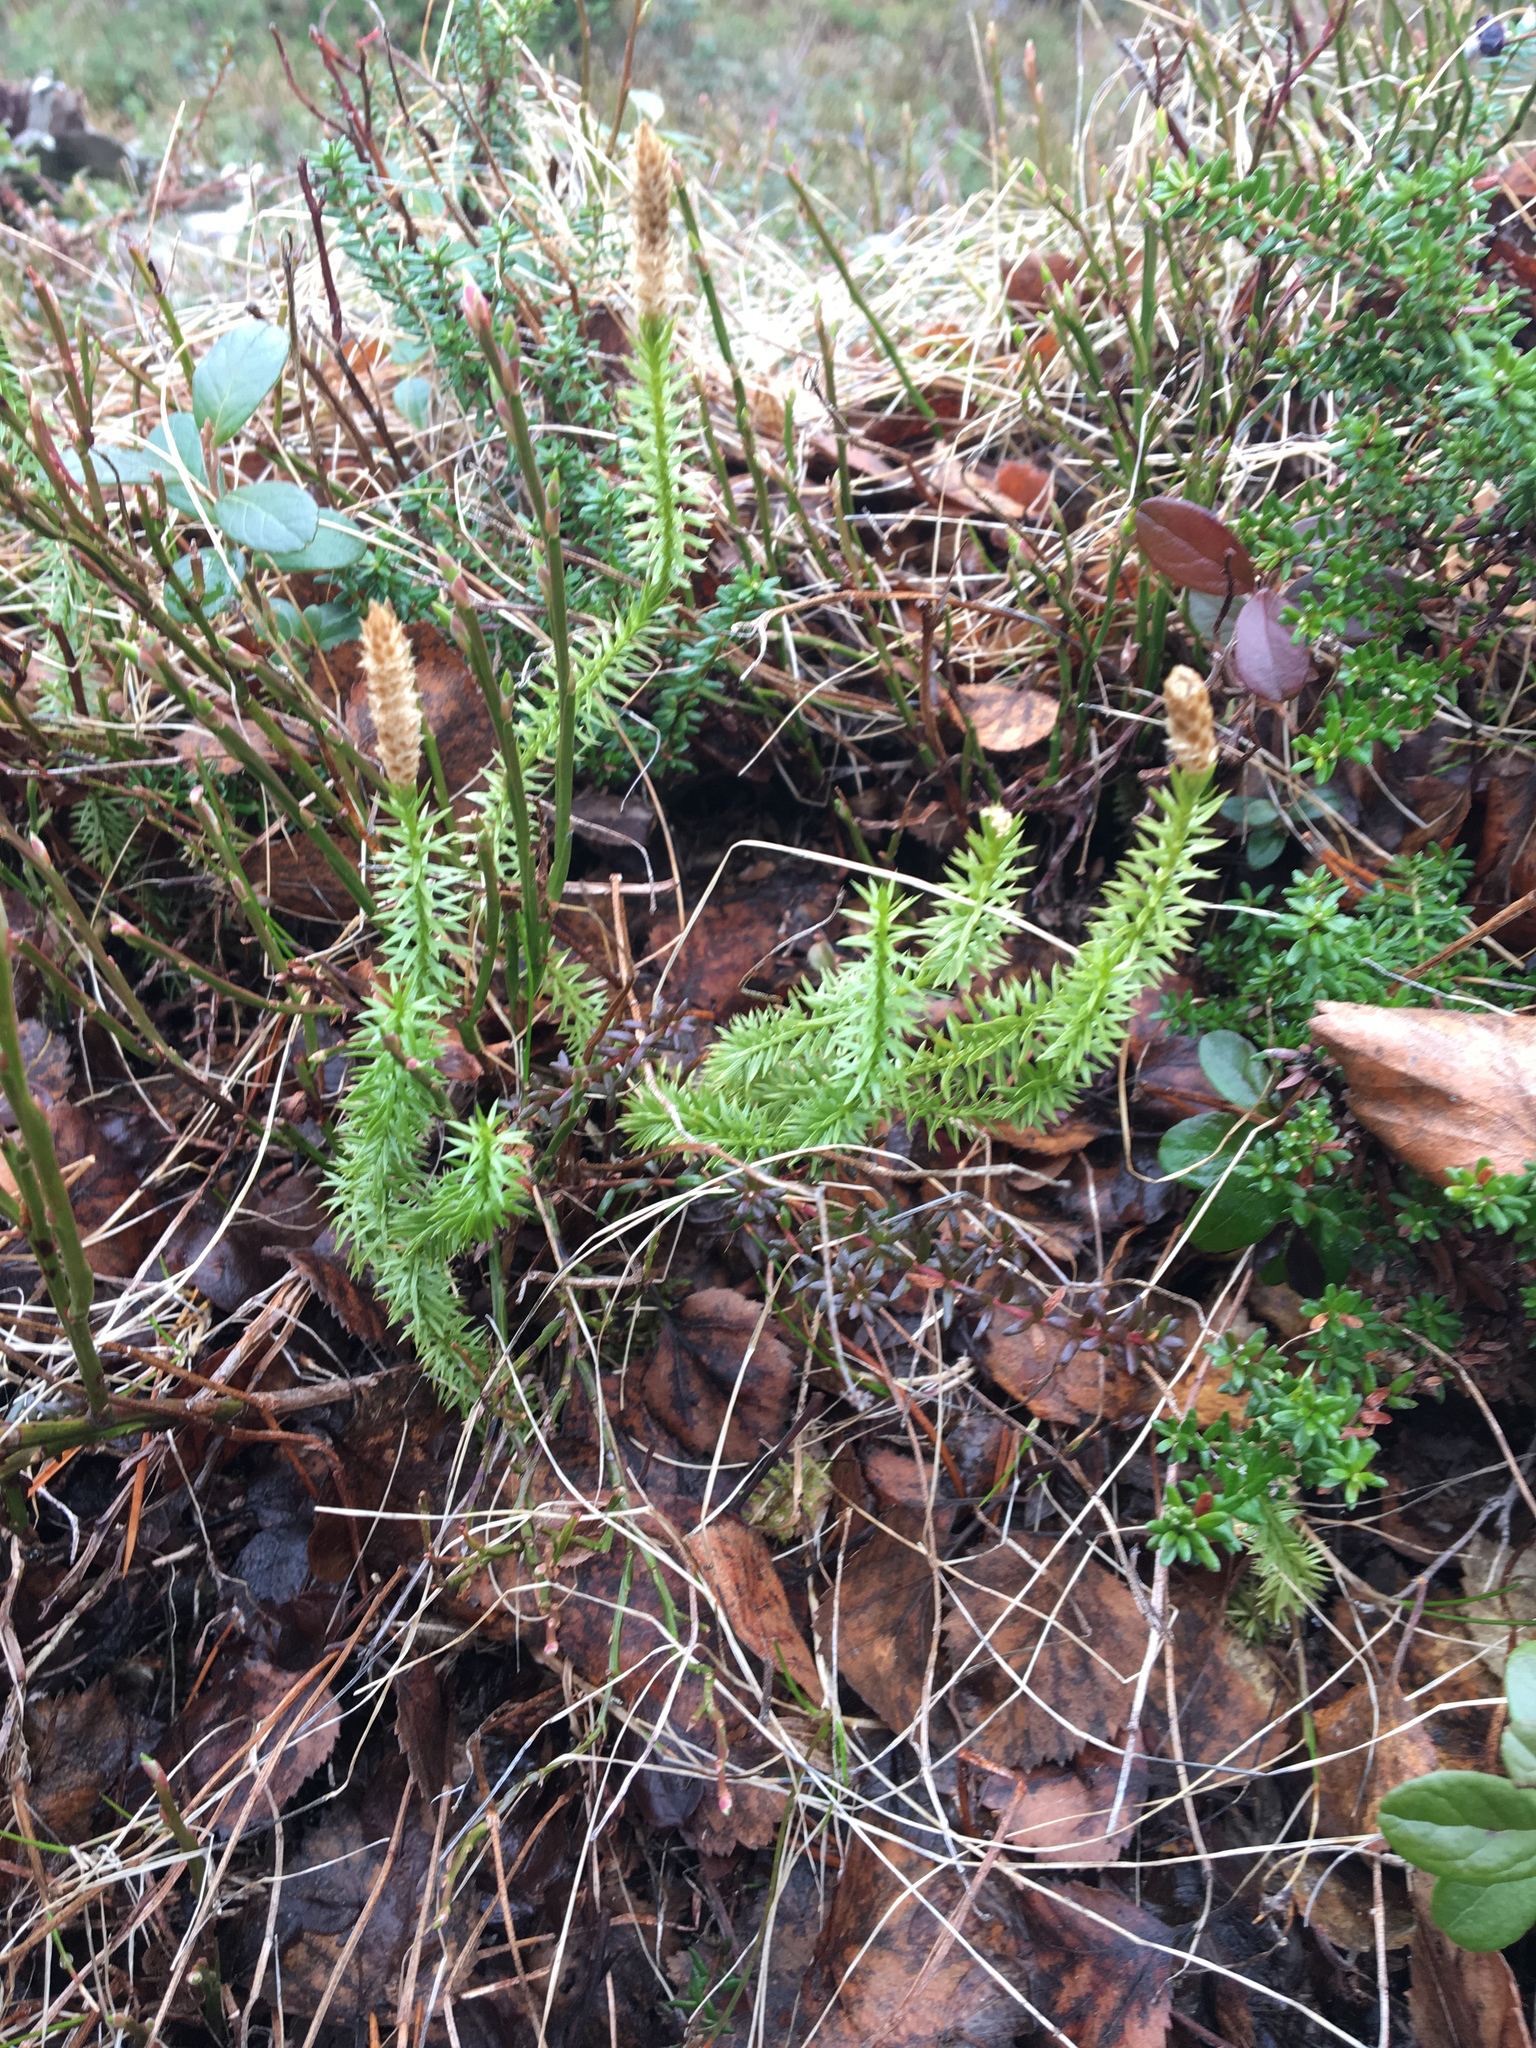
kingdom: Plantae
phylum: Tracheophyta
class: Lycopodiopsida
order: Lycopodiales
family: Lycopodiaceae
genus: Spinulum
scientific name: Spinulum annotinum
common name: Interrupted club-moss
